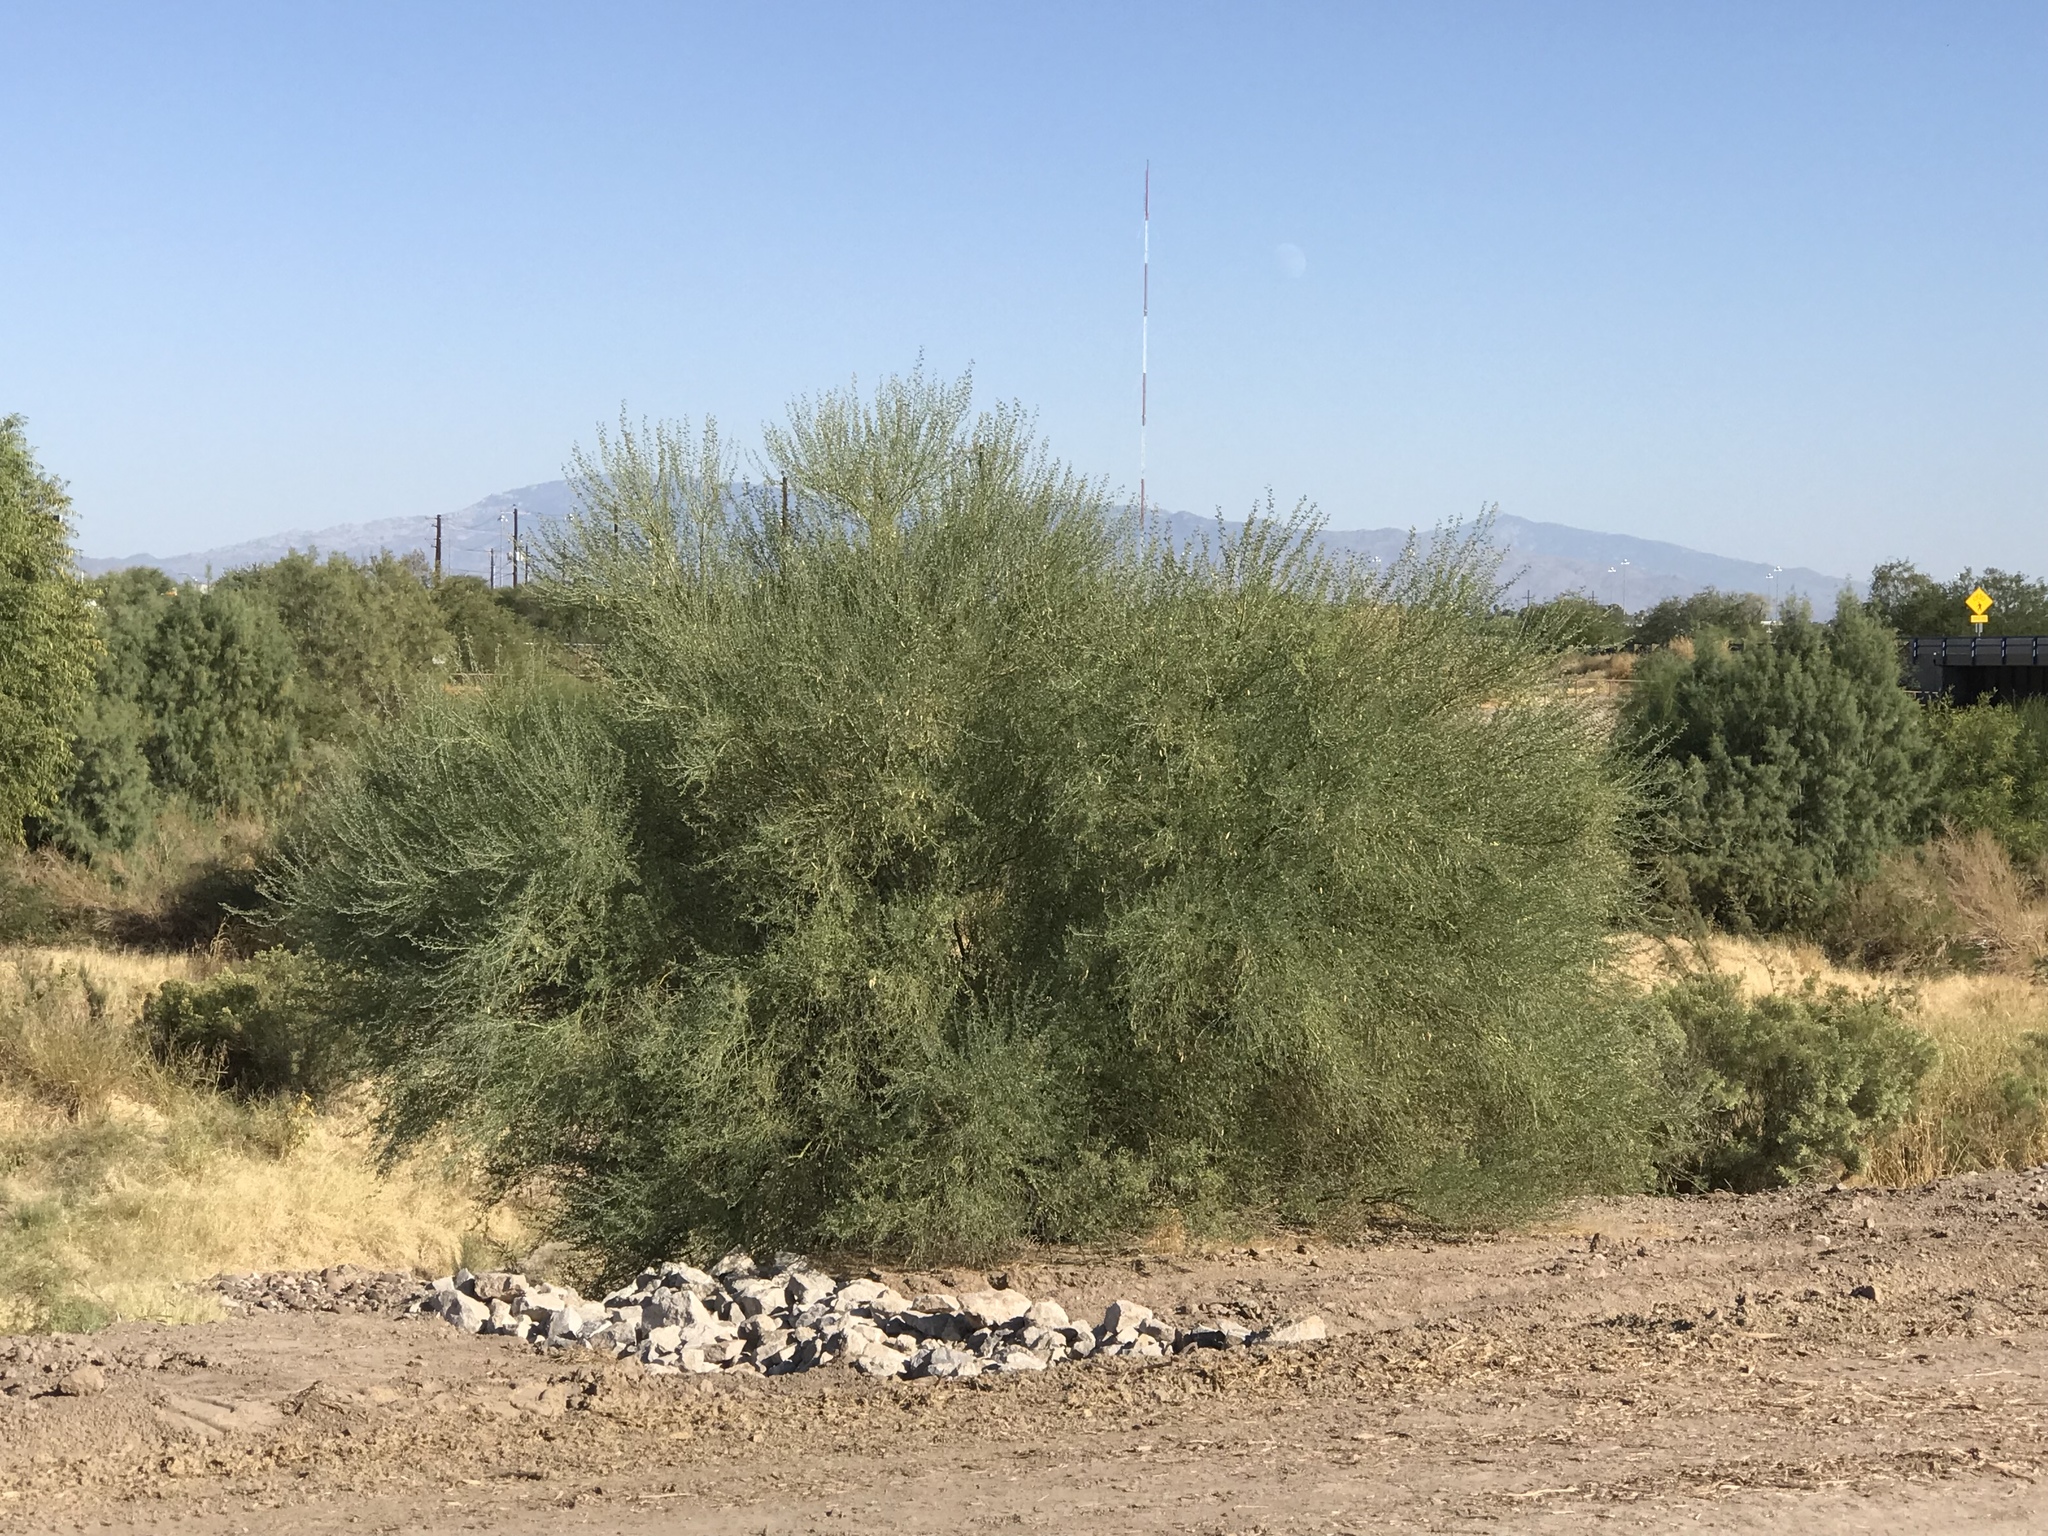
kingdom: Plantae
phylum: Tracheophyta
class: Magnoliopsida
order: Fabales
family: Fabaceae
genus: Parkinsonia
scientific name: Parkinsonia florida
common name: Blue paloverde
